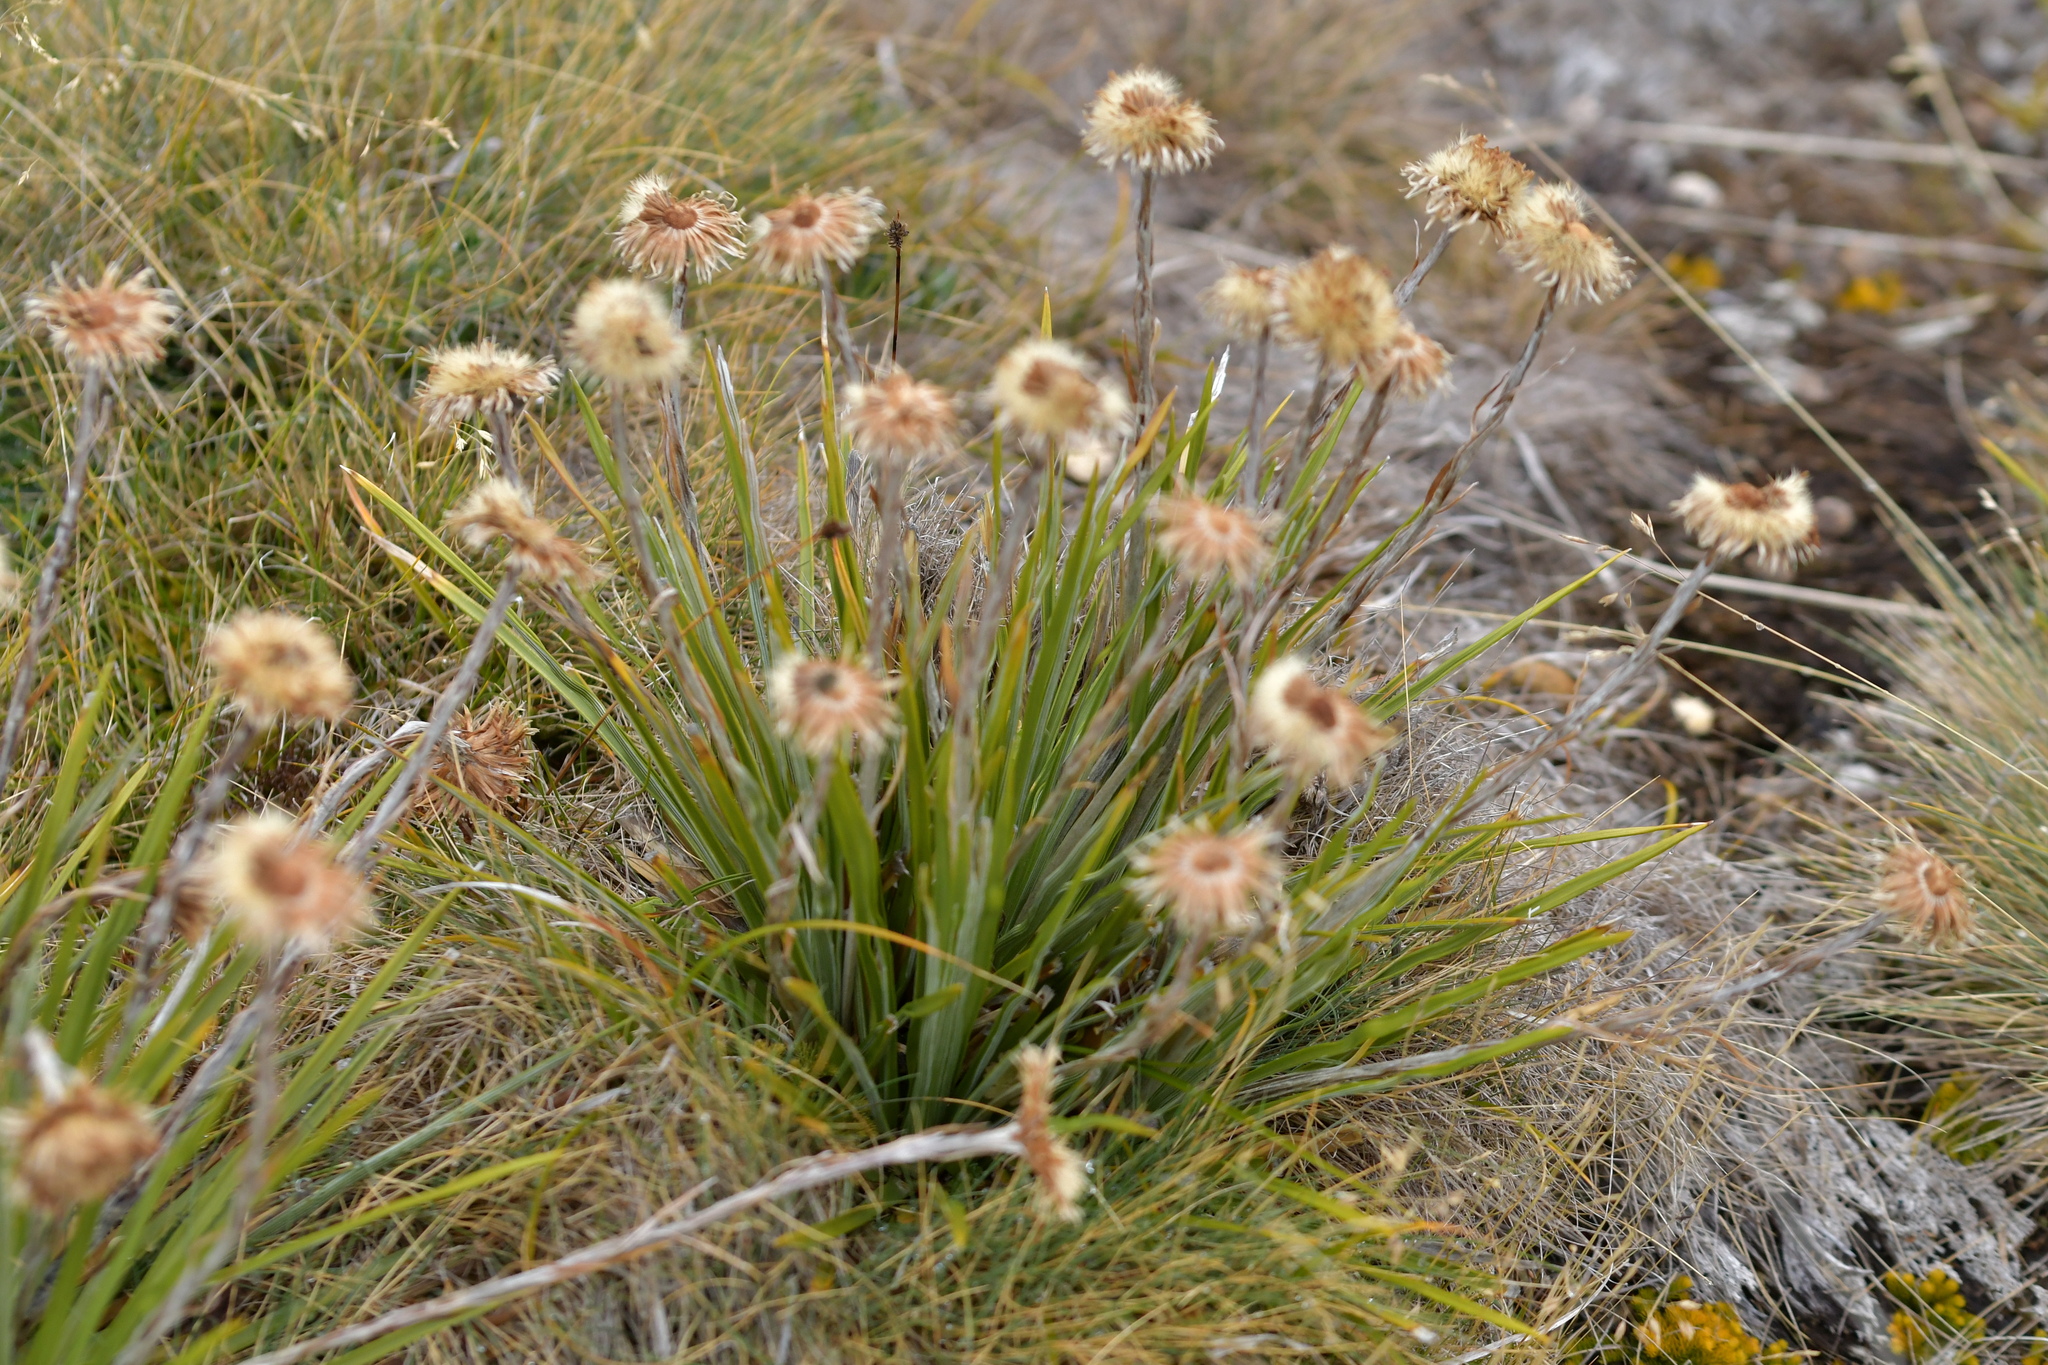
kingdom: Plantae
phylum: Tracheophyta
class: Magnoliopsida
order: Asterales
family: Asteraceae
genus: Celmisia
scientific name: Celmisia lyallii
